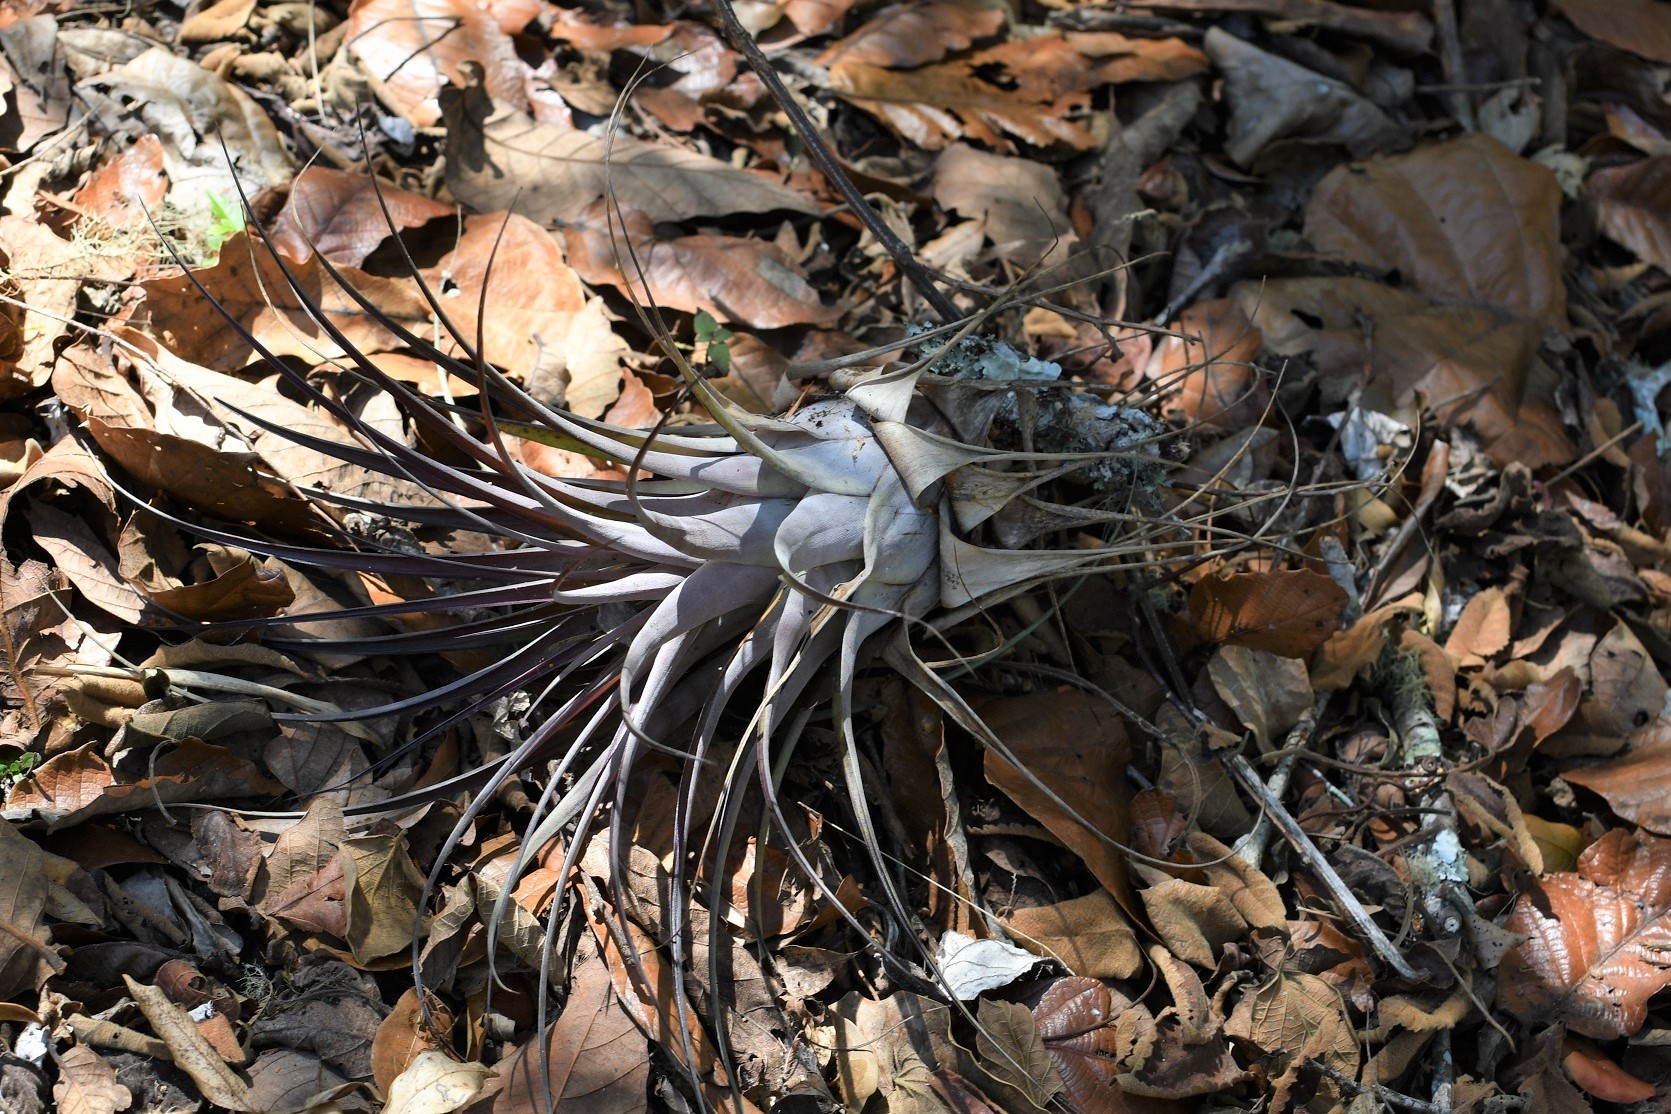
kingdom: Plantae
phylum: Tracheophyta
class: Liliopsida
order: Poales
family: Bromeliaceae
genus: Tillandsia
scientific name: Tillandsia cucaensis
